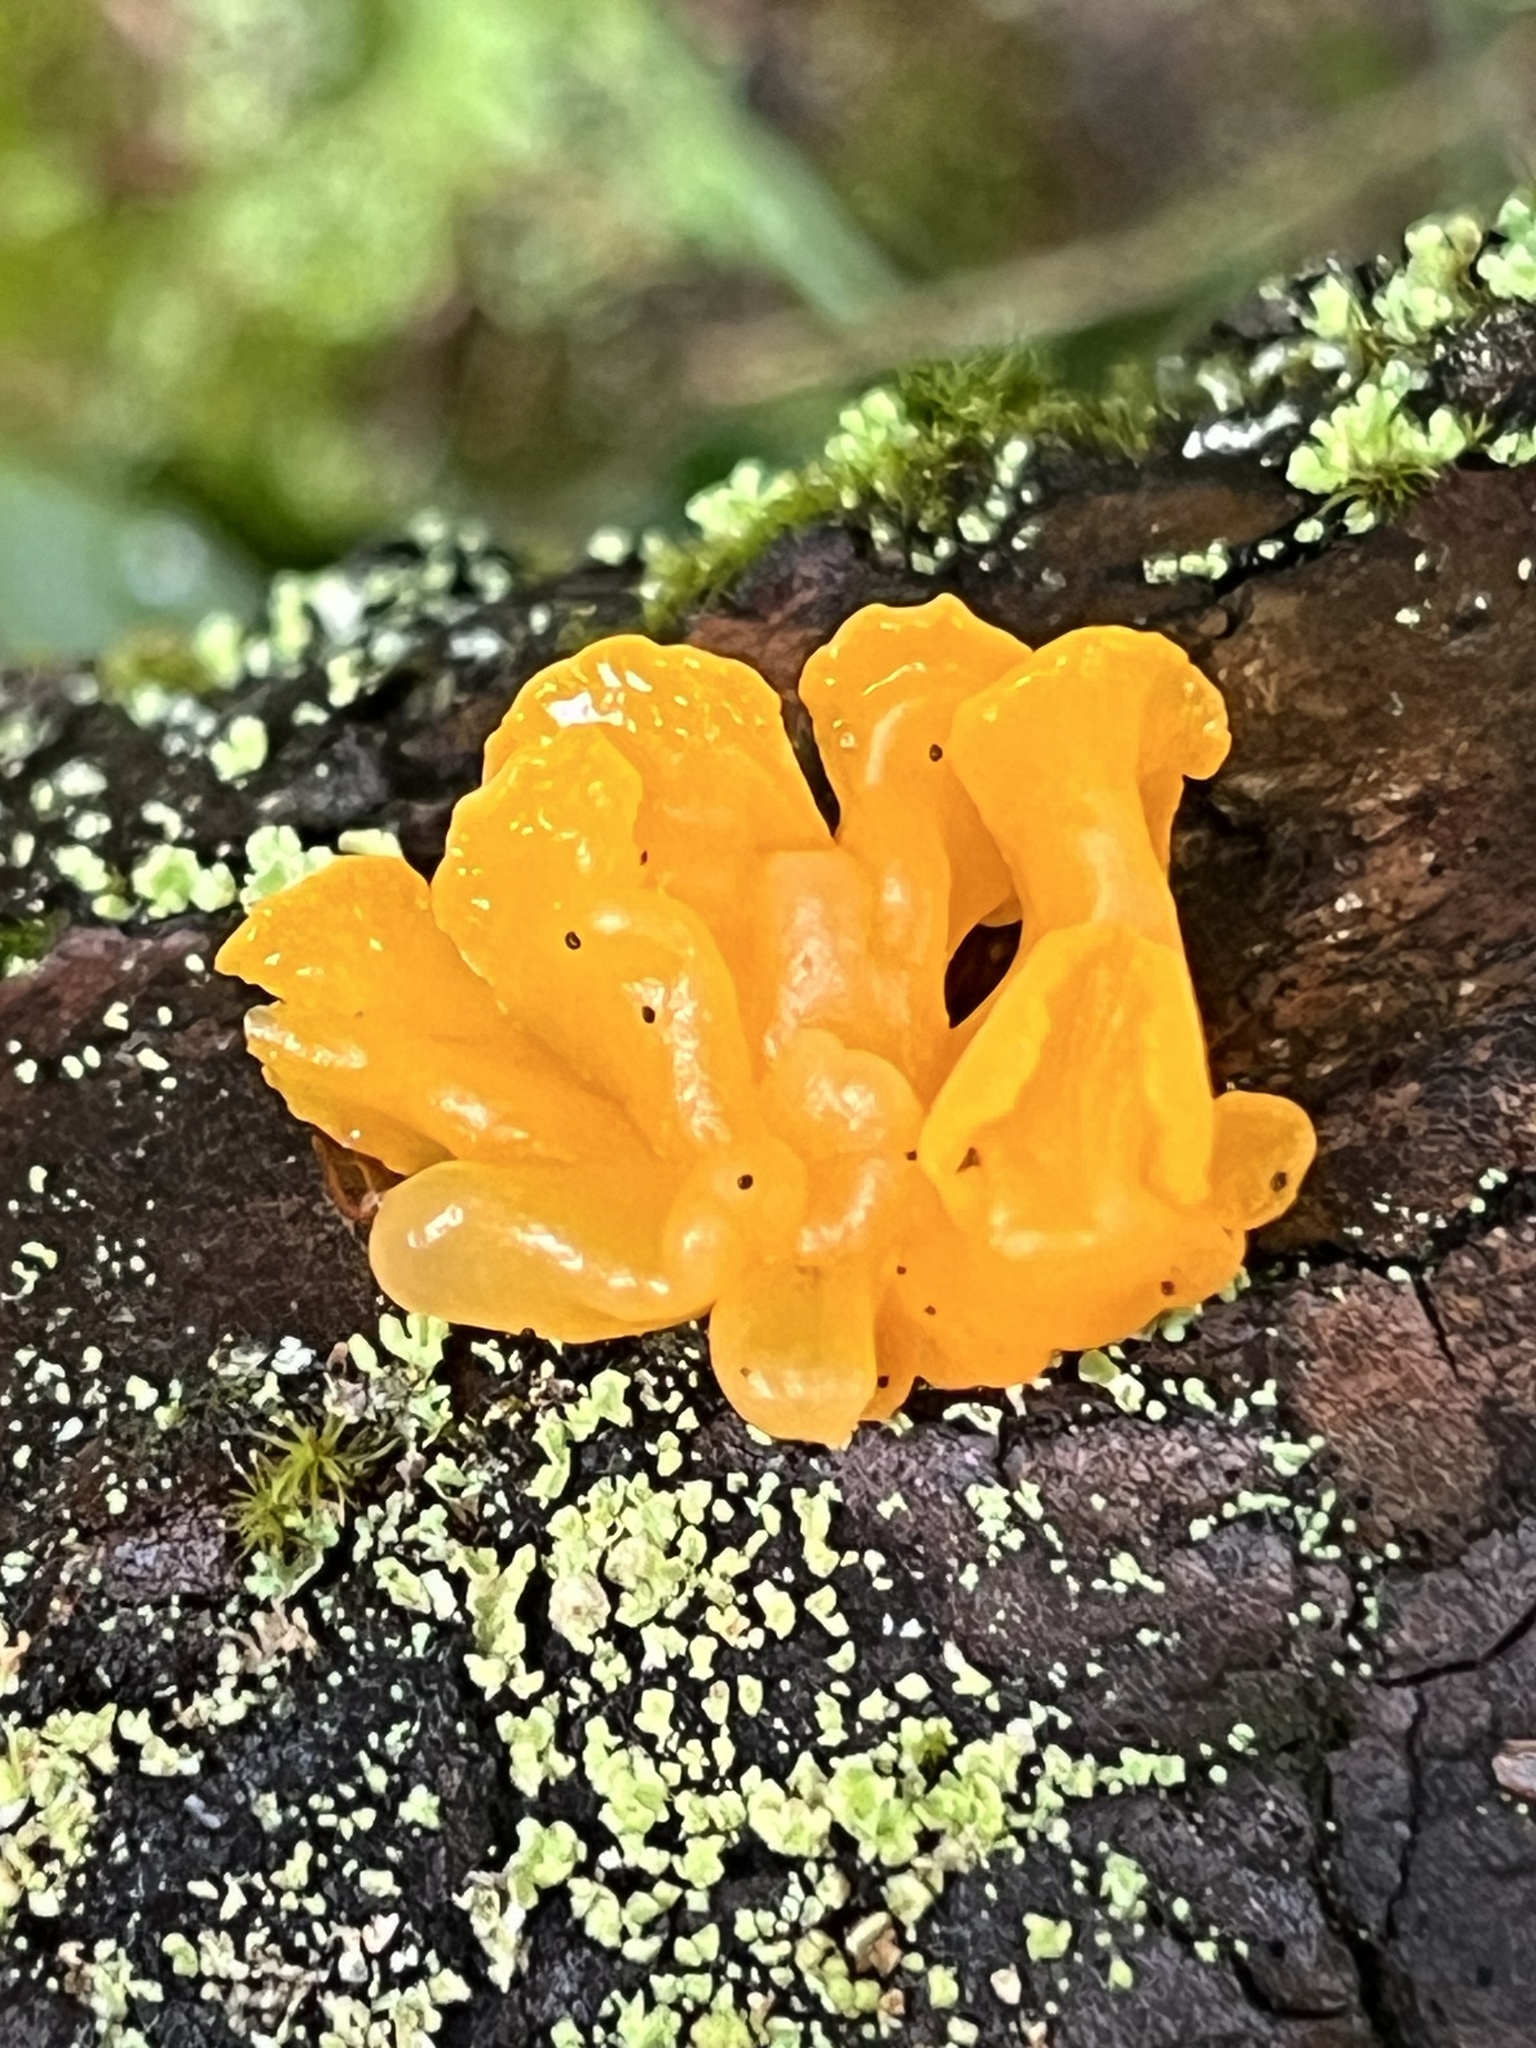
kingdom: Fungi
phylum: Basidiomycota
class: Dacrymycetes
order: Dacrymycetales
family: Dacrymycetaceae
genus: Dacrymyces
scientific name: Dacrymyces chrysospermus
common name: Orange jelly spot
